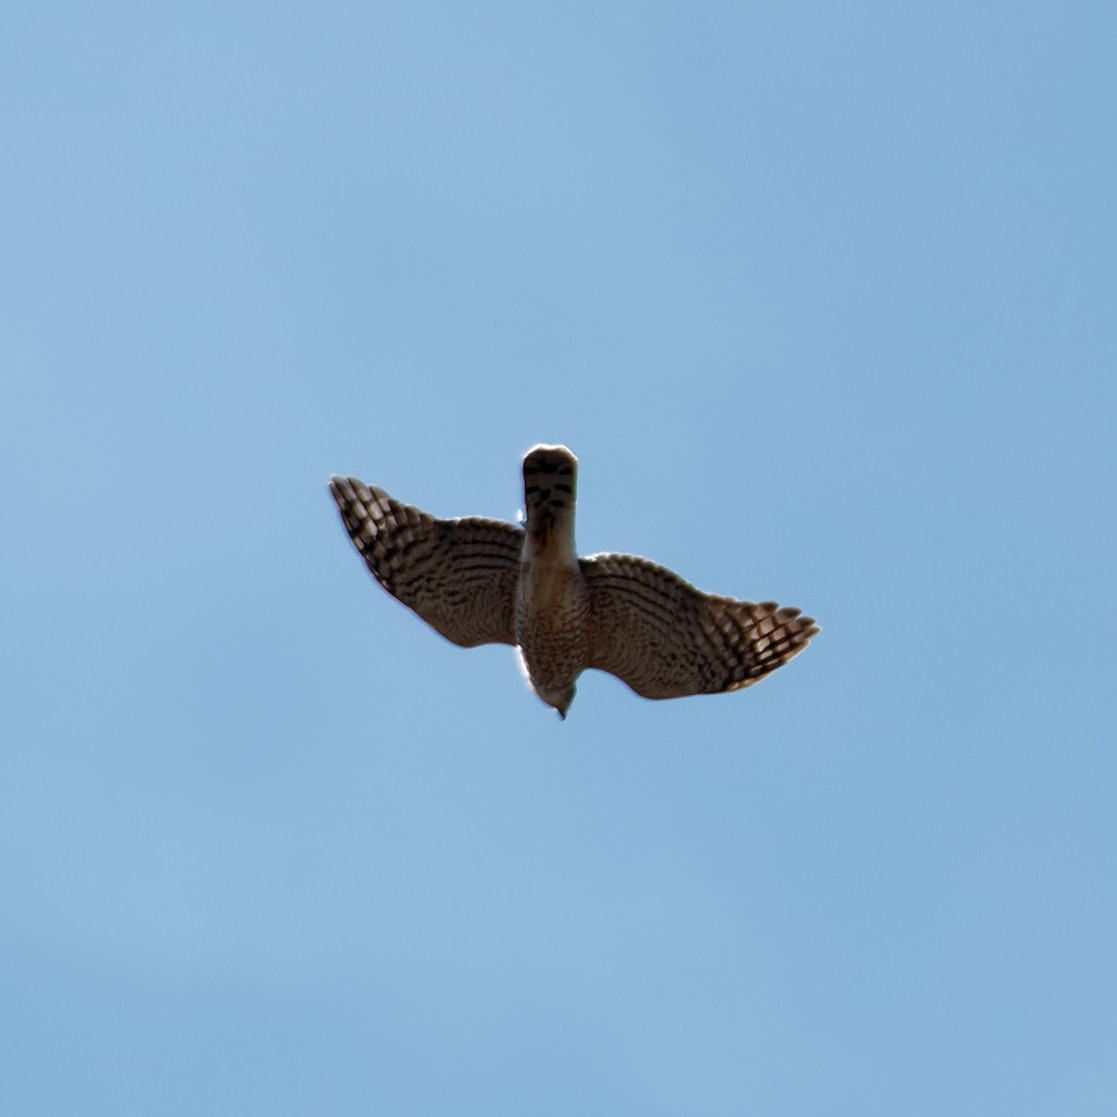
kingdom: Animalia
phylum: Chordata
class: Aves
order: Accipitriformes
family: Accipitridae
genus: Accipiter
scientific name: Accipiter cooperii
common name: Cooper's hawk
